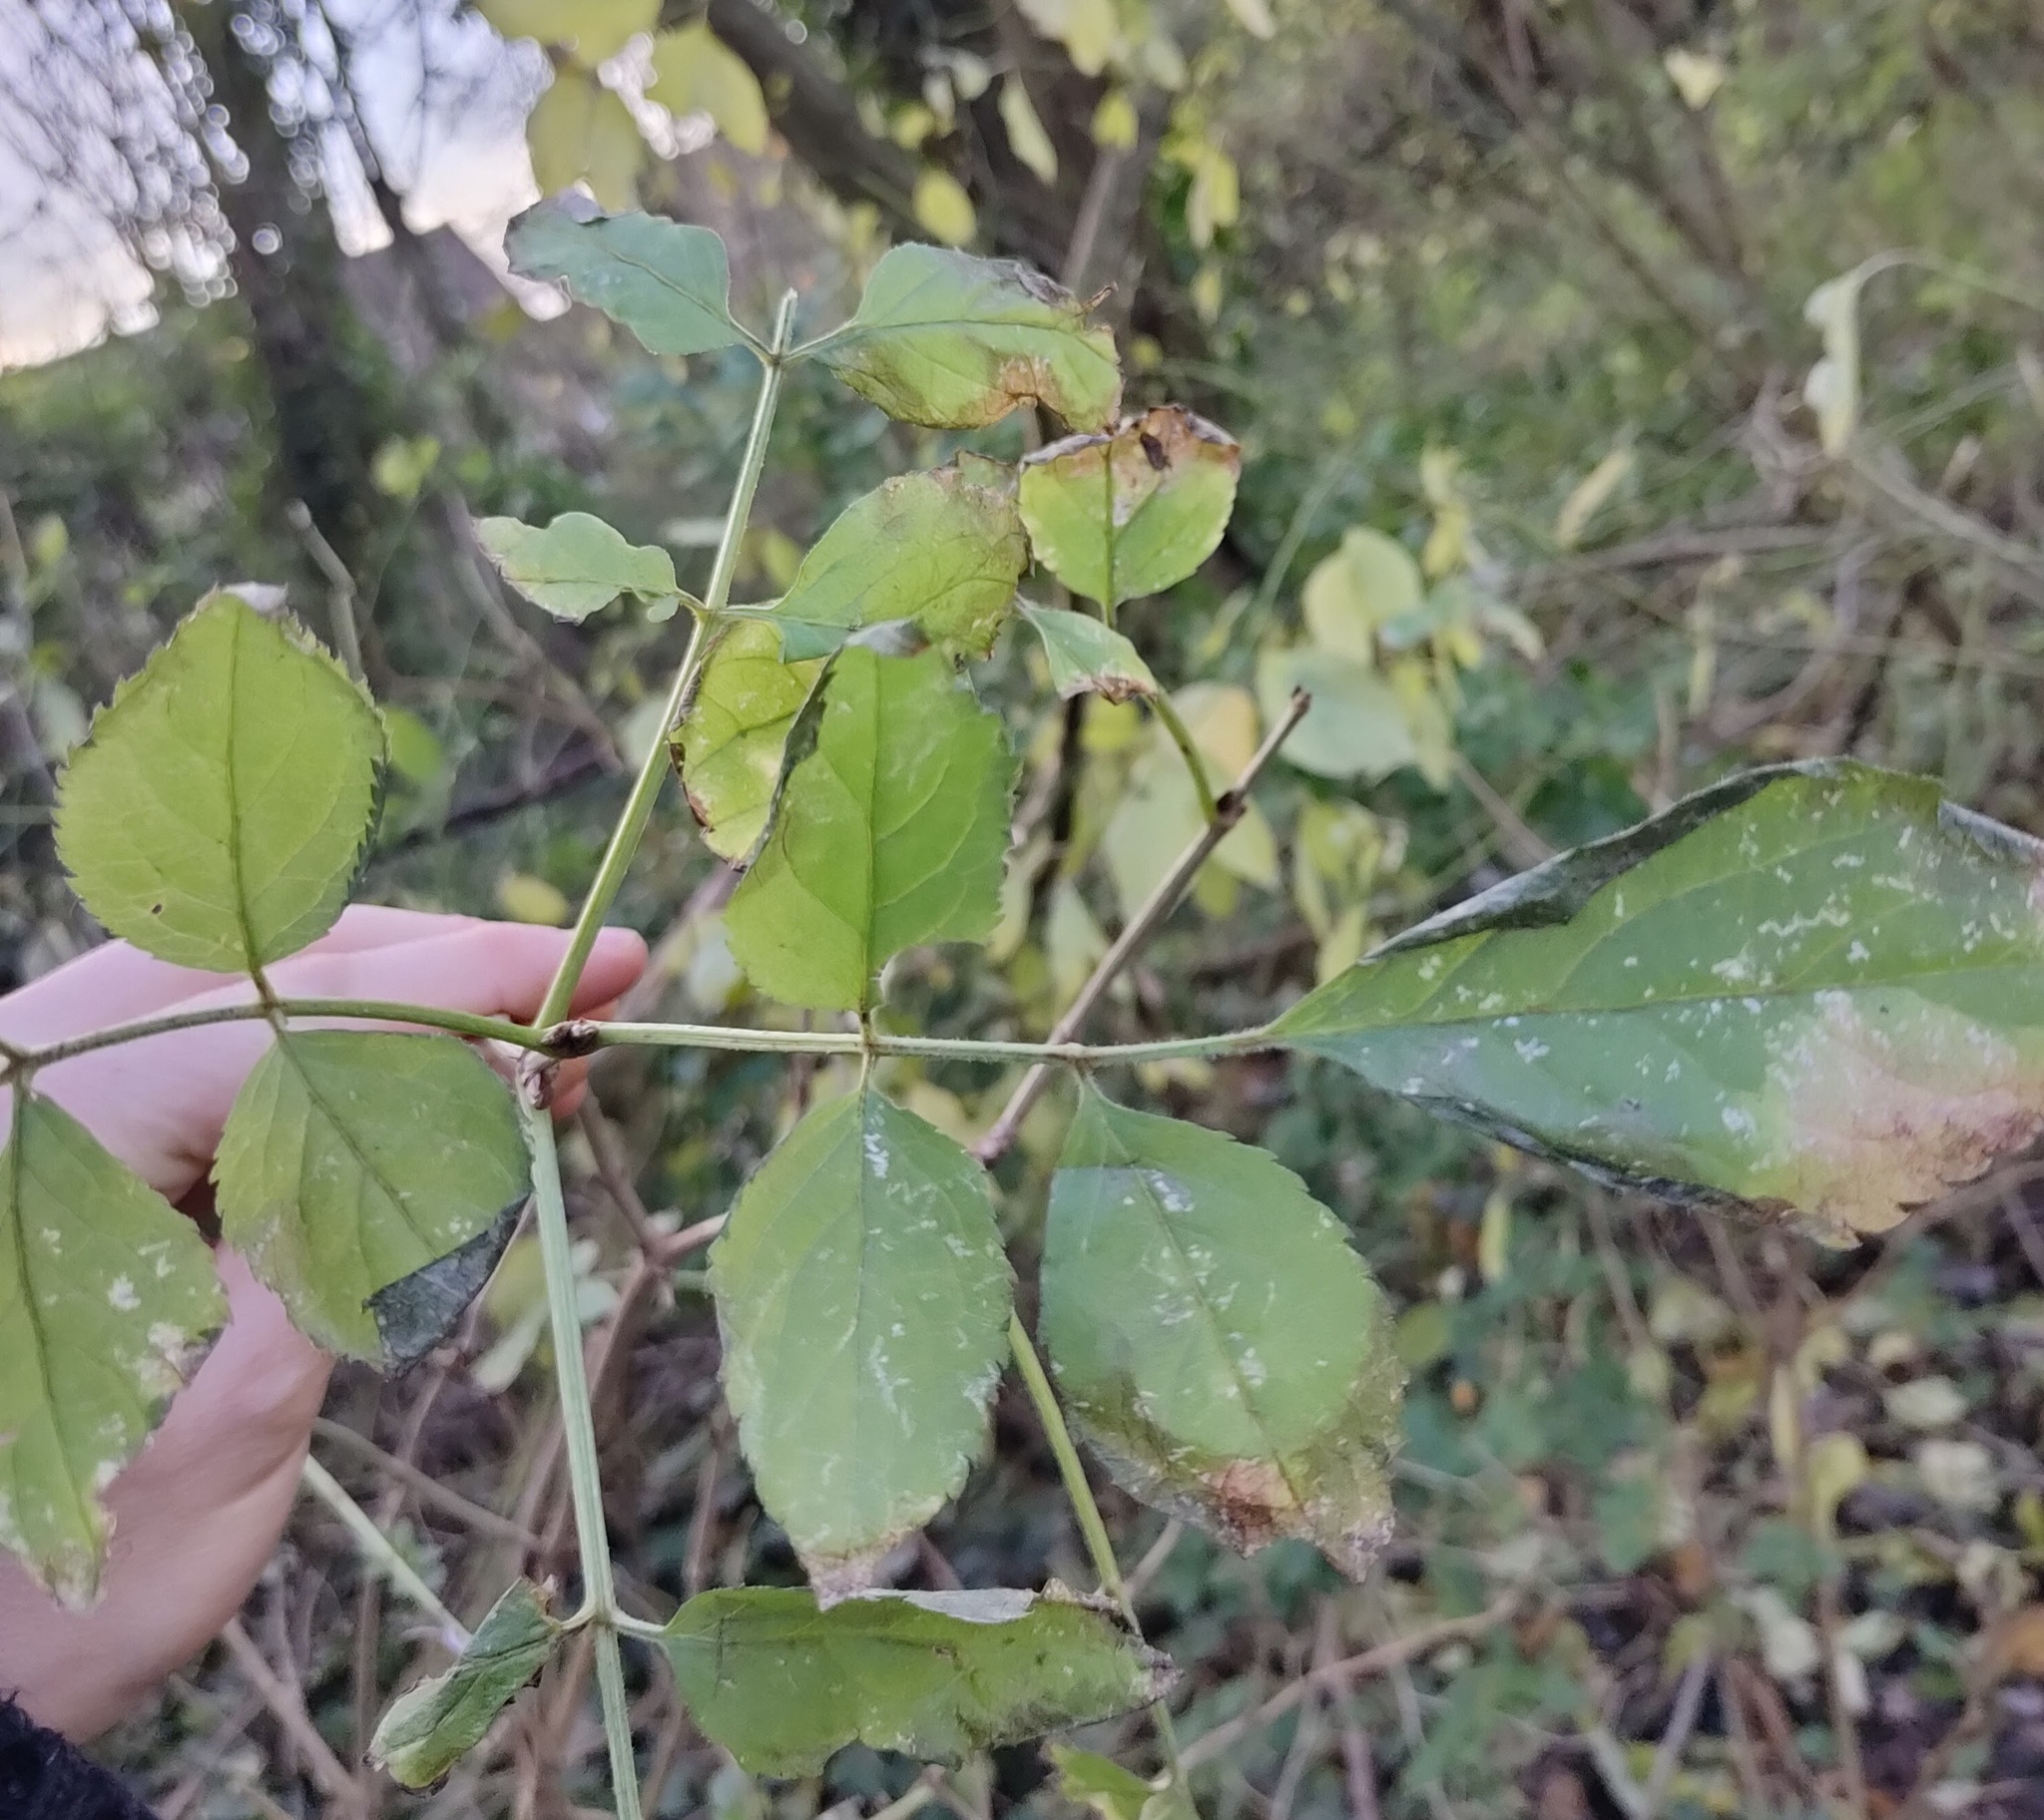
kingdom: Plantae
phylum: Tracheophyta
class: Magnoliopsida
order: Dipsacales
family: Viburnaceae
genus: Sambucus
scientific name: Sambucus nigra
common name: Elder
